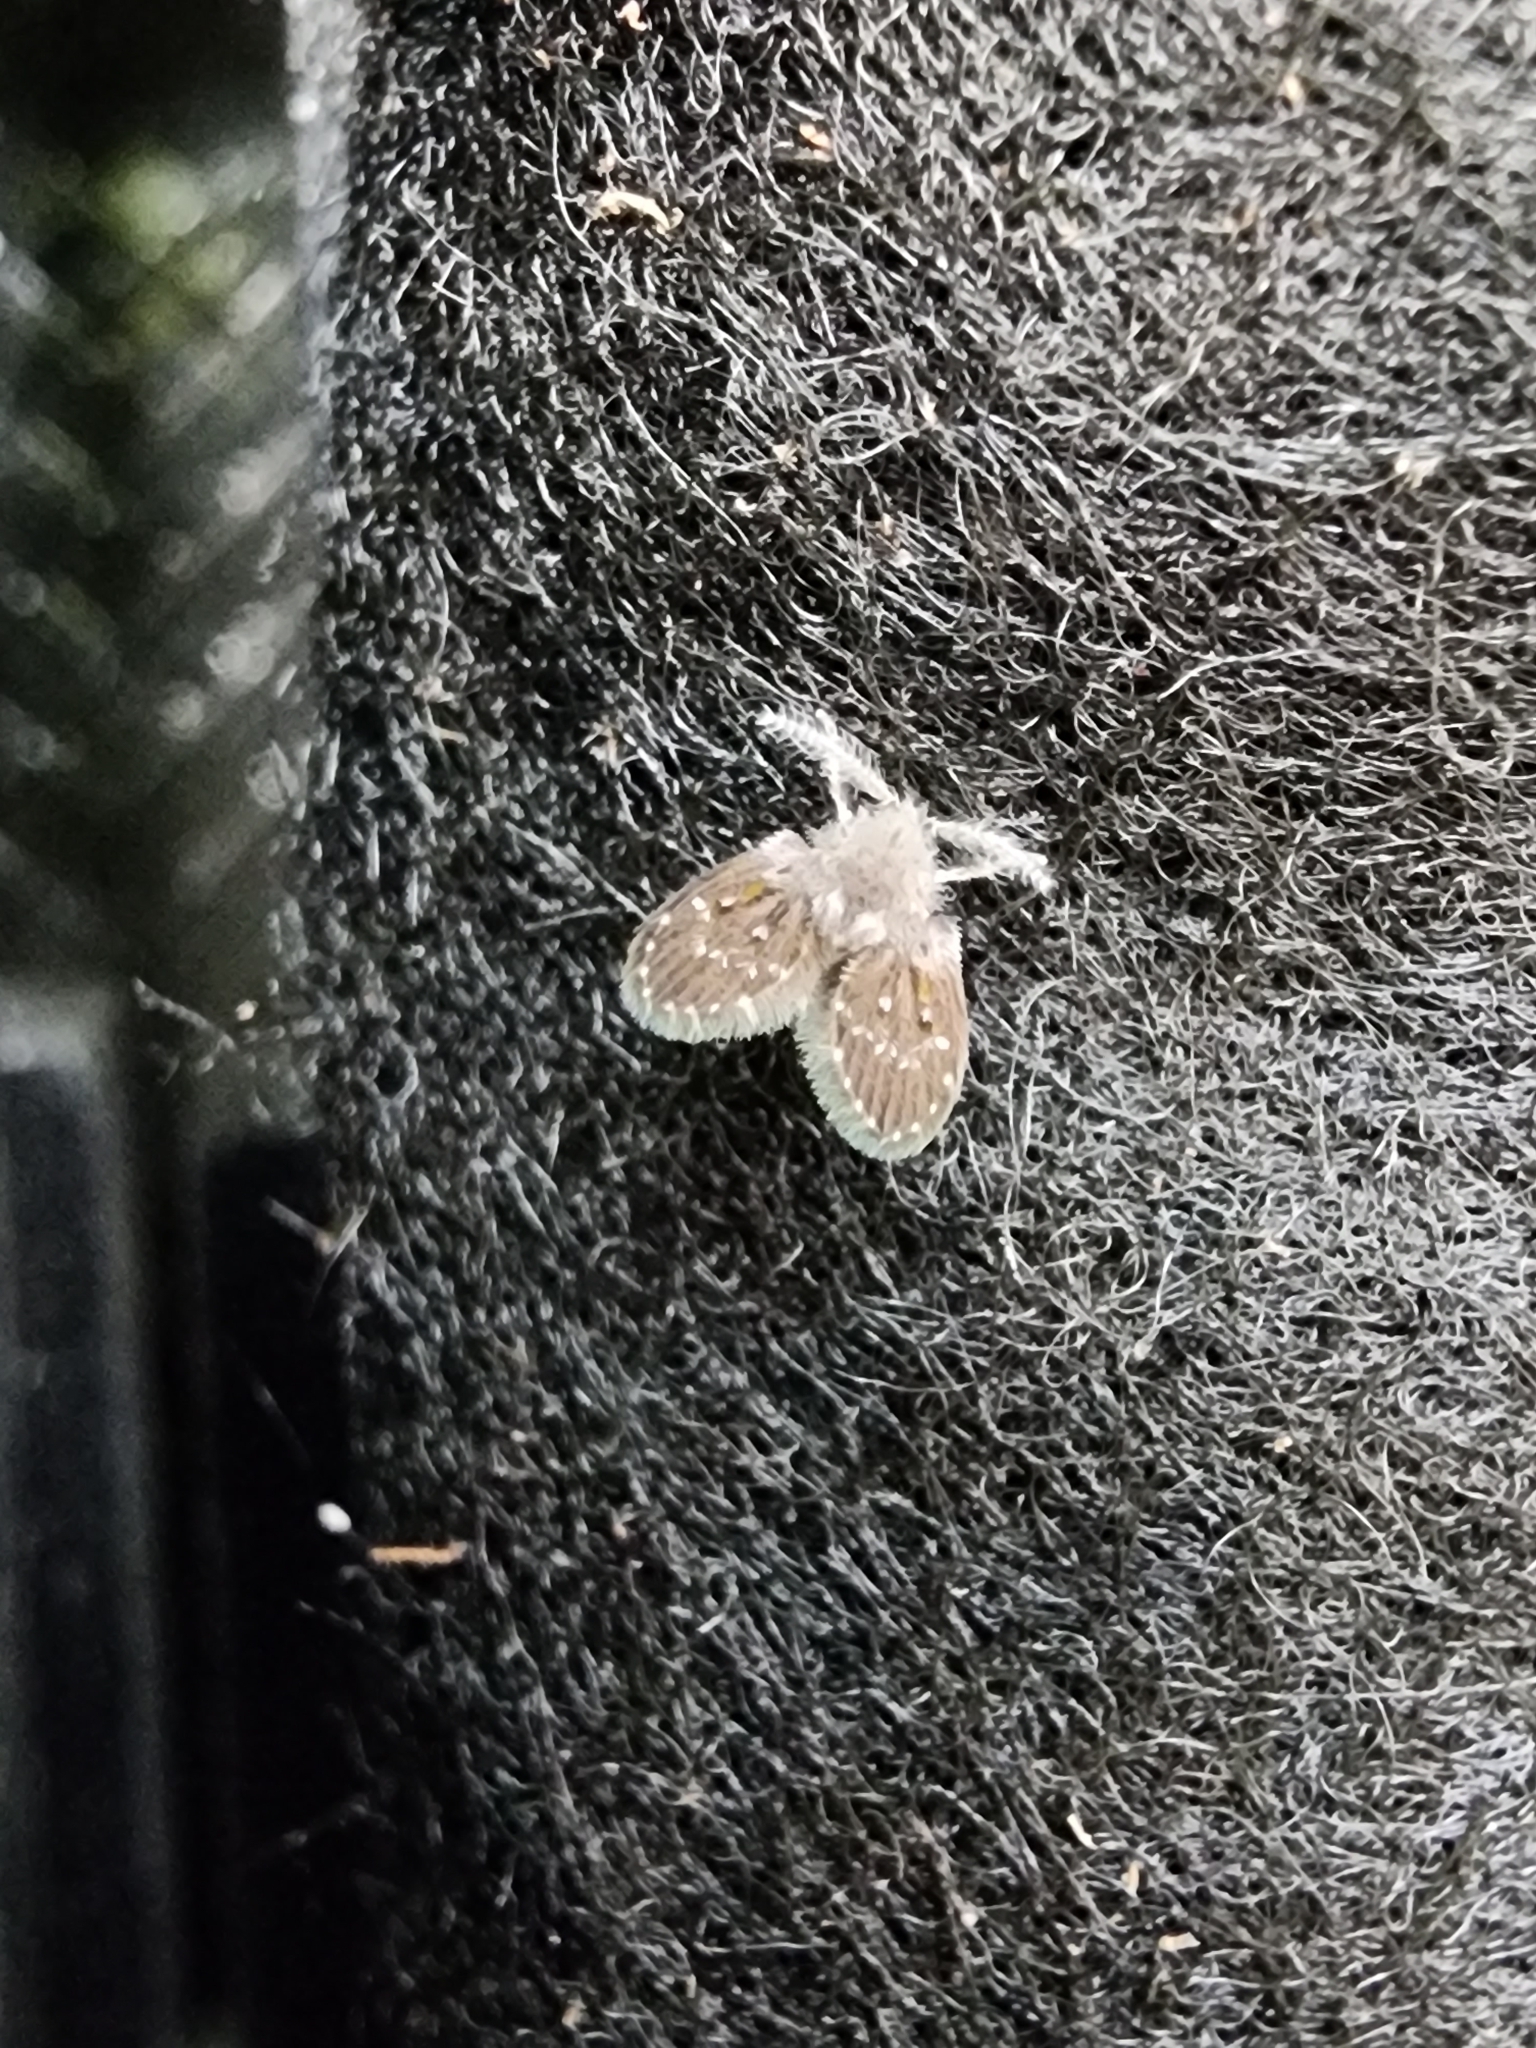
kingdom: Animalia
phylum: Arthropoda
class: Insecta
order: Diptera
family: Psychodidae
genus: Clogmia
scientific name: Clogmia albipunctatus
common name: White-spotted moth fly
